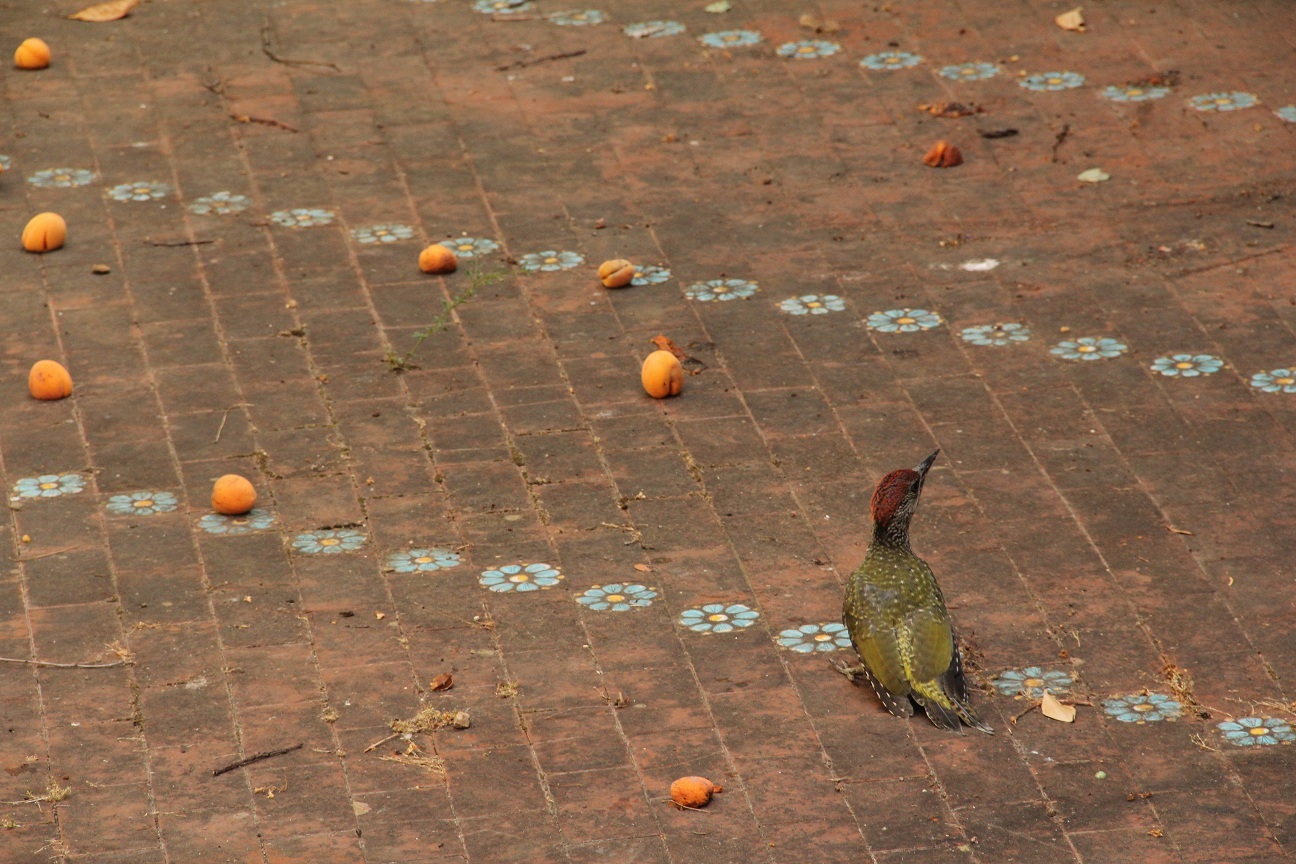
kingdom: Animalia
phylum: Chordata
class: Aves
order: Piciformes
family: Picidae
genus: Picus
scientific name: Picus viridis
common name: European green woodpecker
